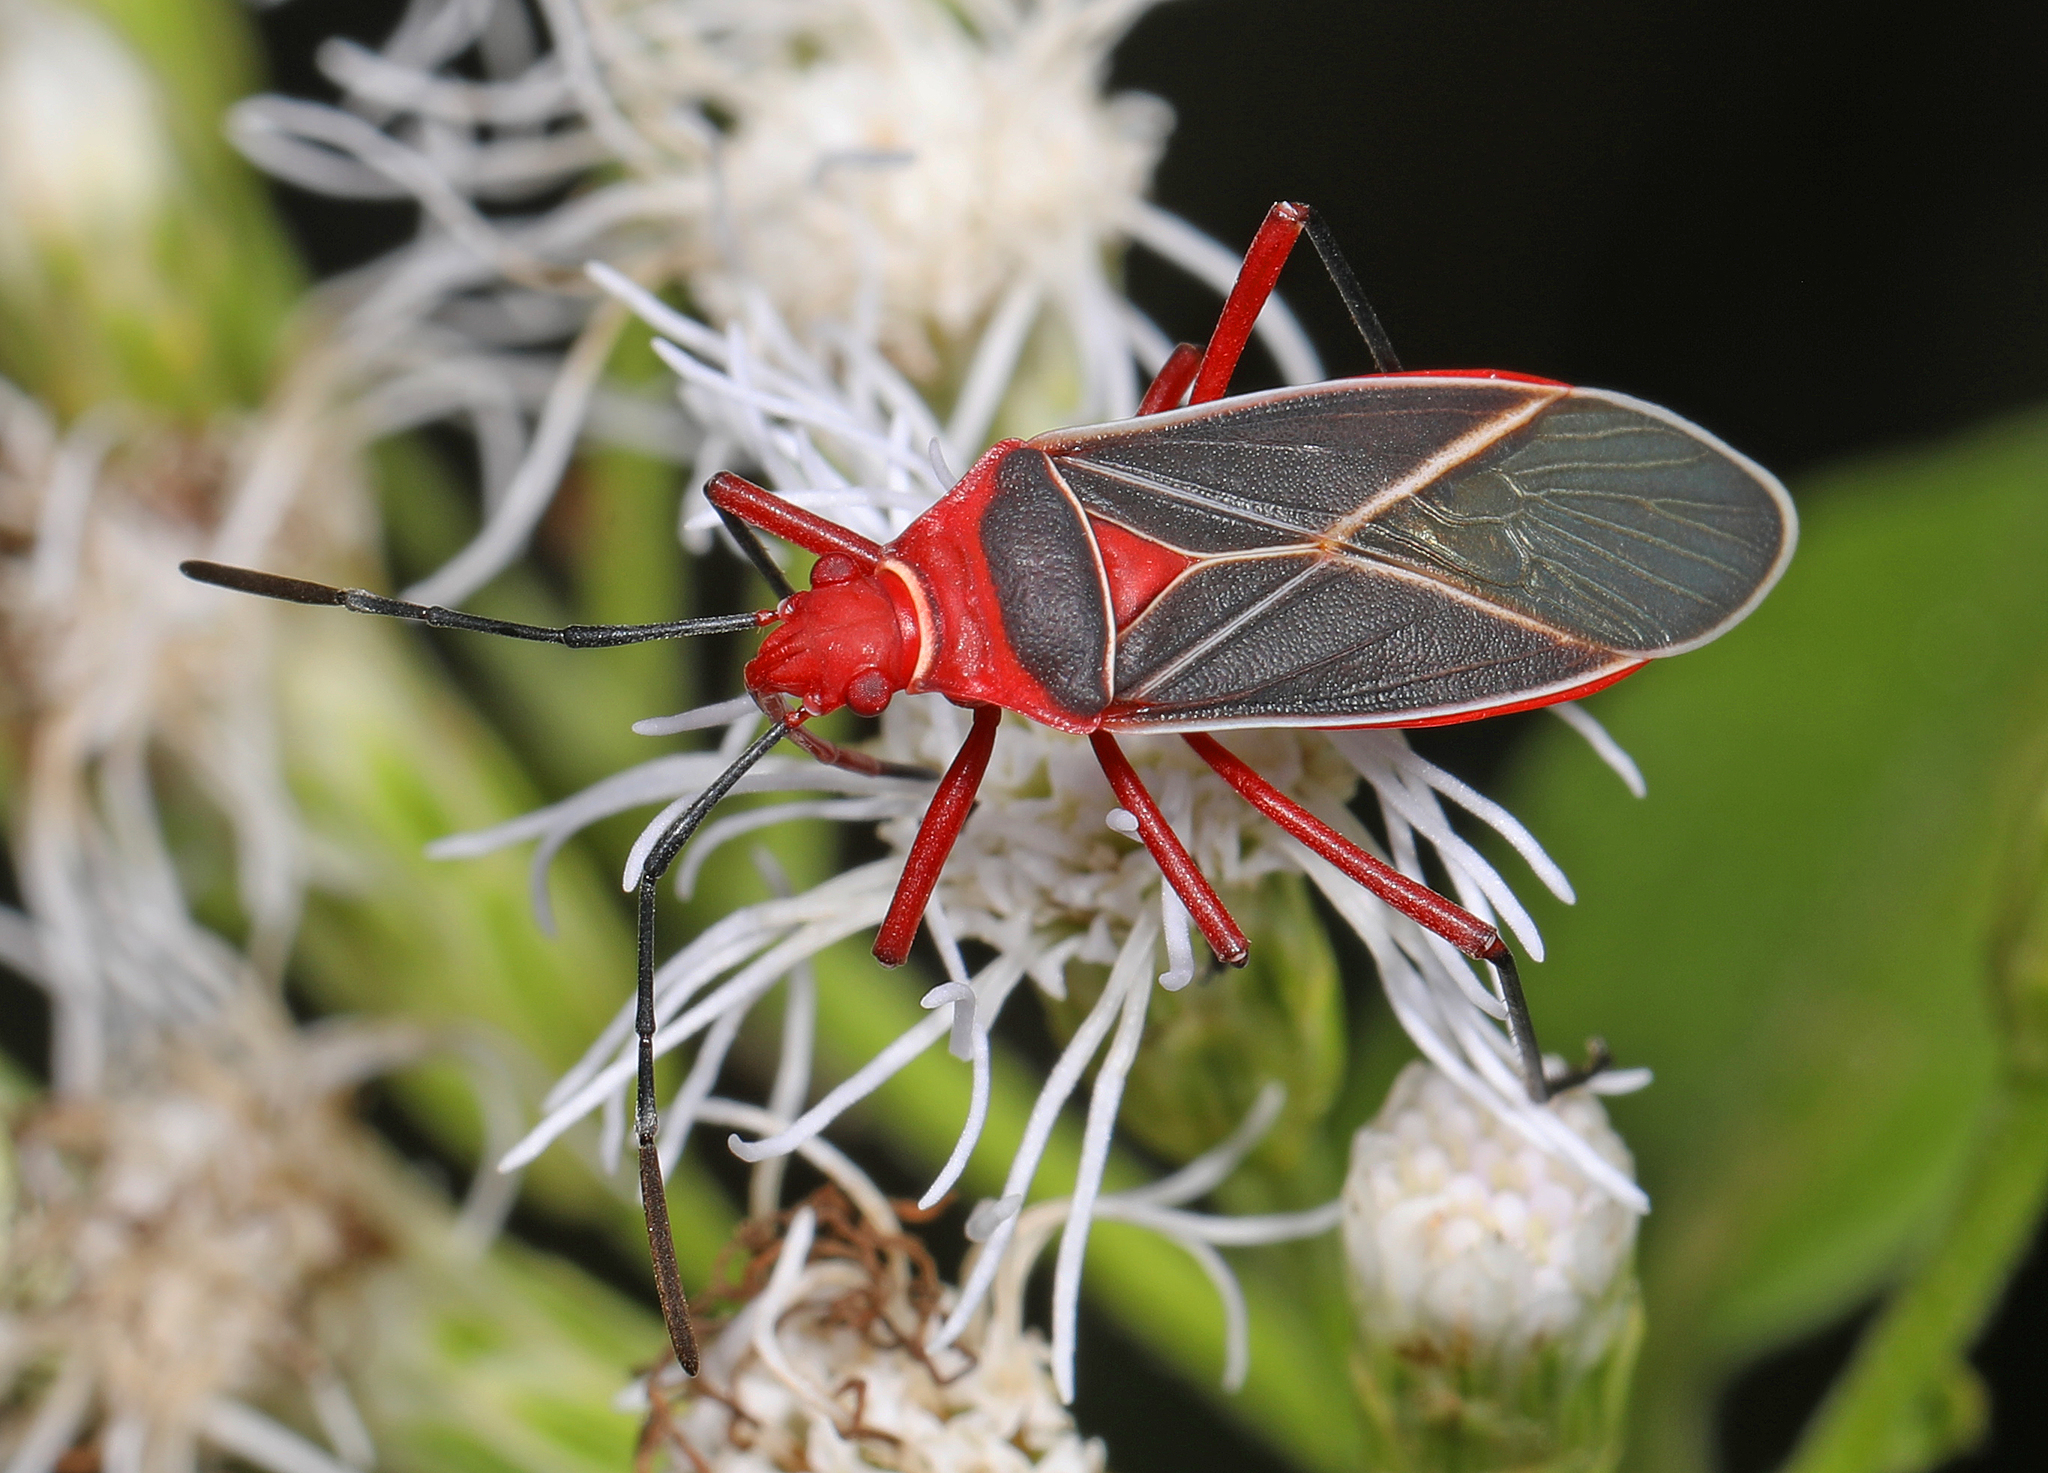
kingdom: Animalia
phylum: Arthropoda
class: Insecta
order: Hemiptera
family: Pyrrhocoridae
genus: Dysdercus
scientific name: Dysdercus suturellus
